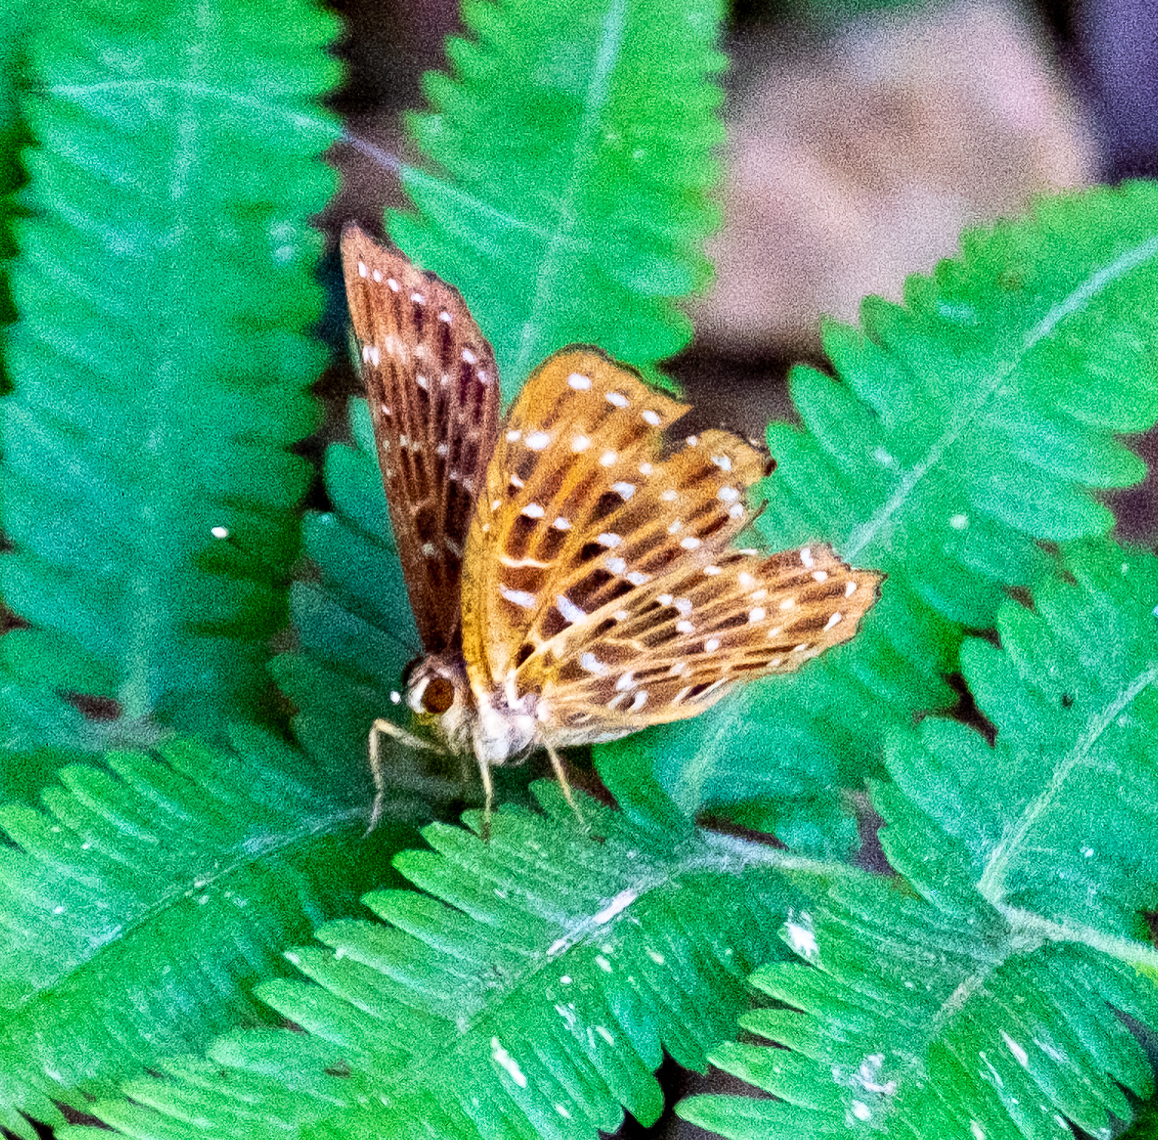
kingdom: Animalia
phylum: Arthropoda
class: Insecta
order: Lepidoptera
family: Riodinidae
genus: Zemeros
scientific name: Zemeros flegyas
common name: Punchinello
